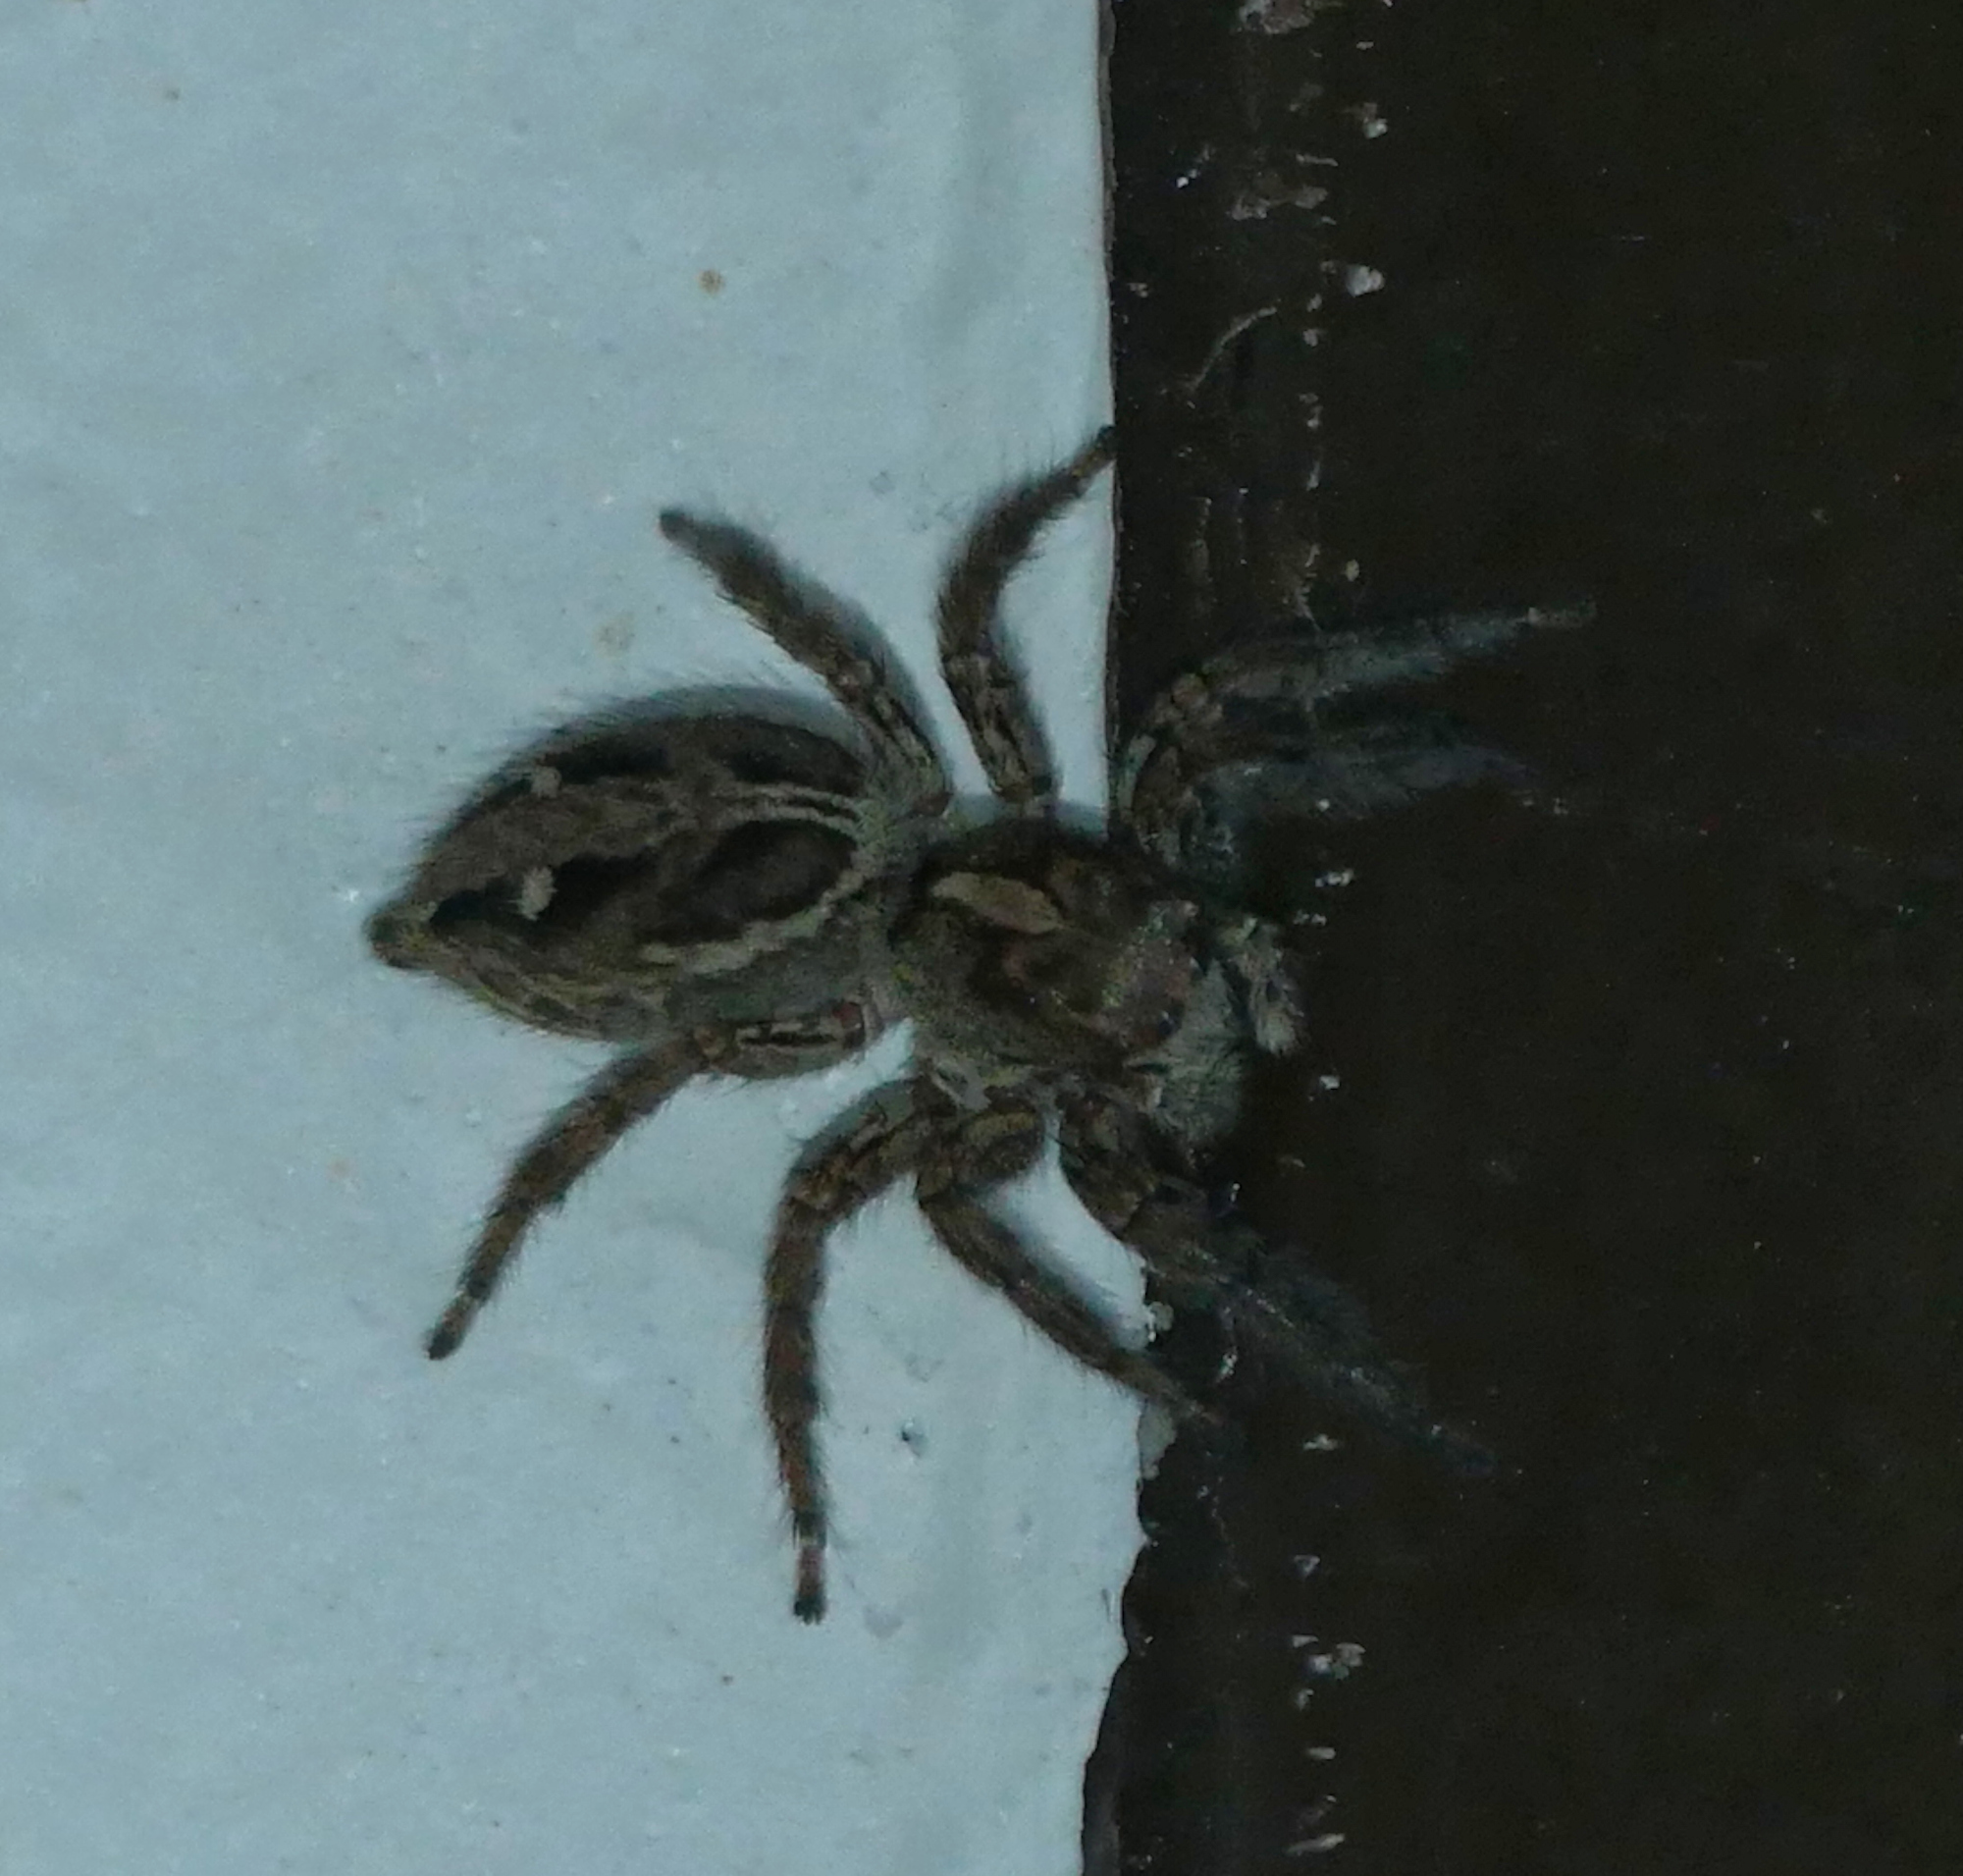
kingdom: Animalia
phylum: Arthropoda
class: Arachnida
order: Araneae
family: Salticidae
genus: Plexippus
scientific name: Plexippus paykulli
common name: Pantropical jumper
